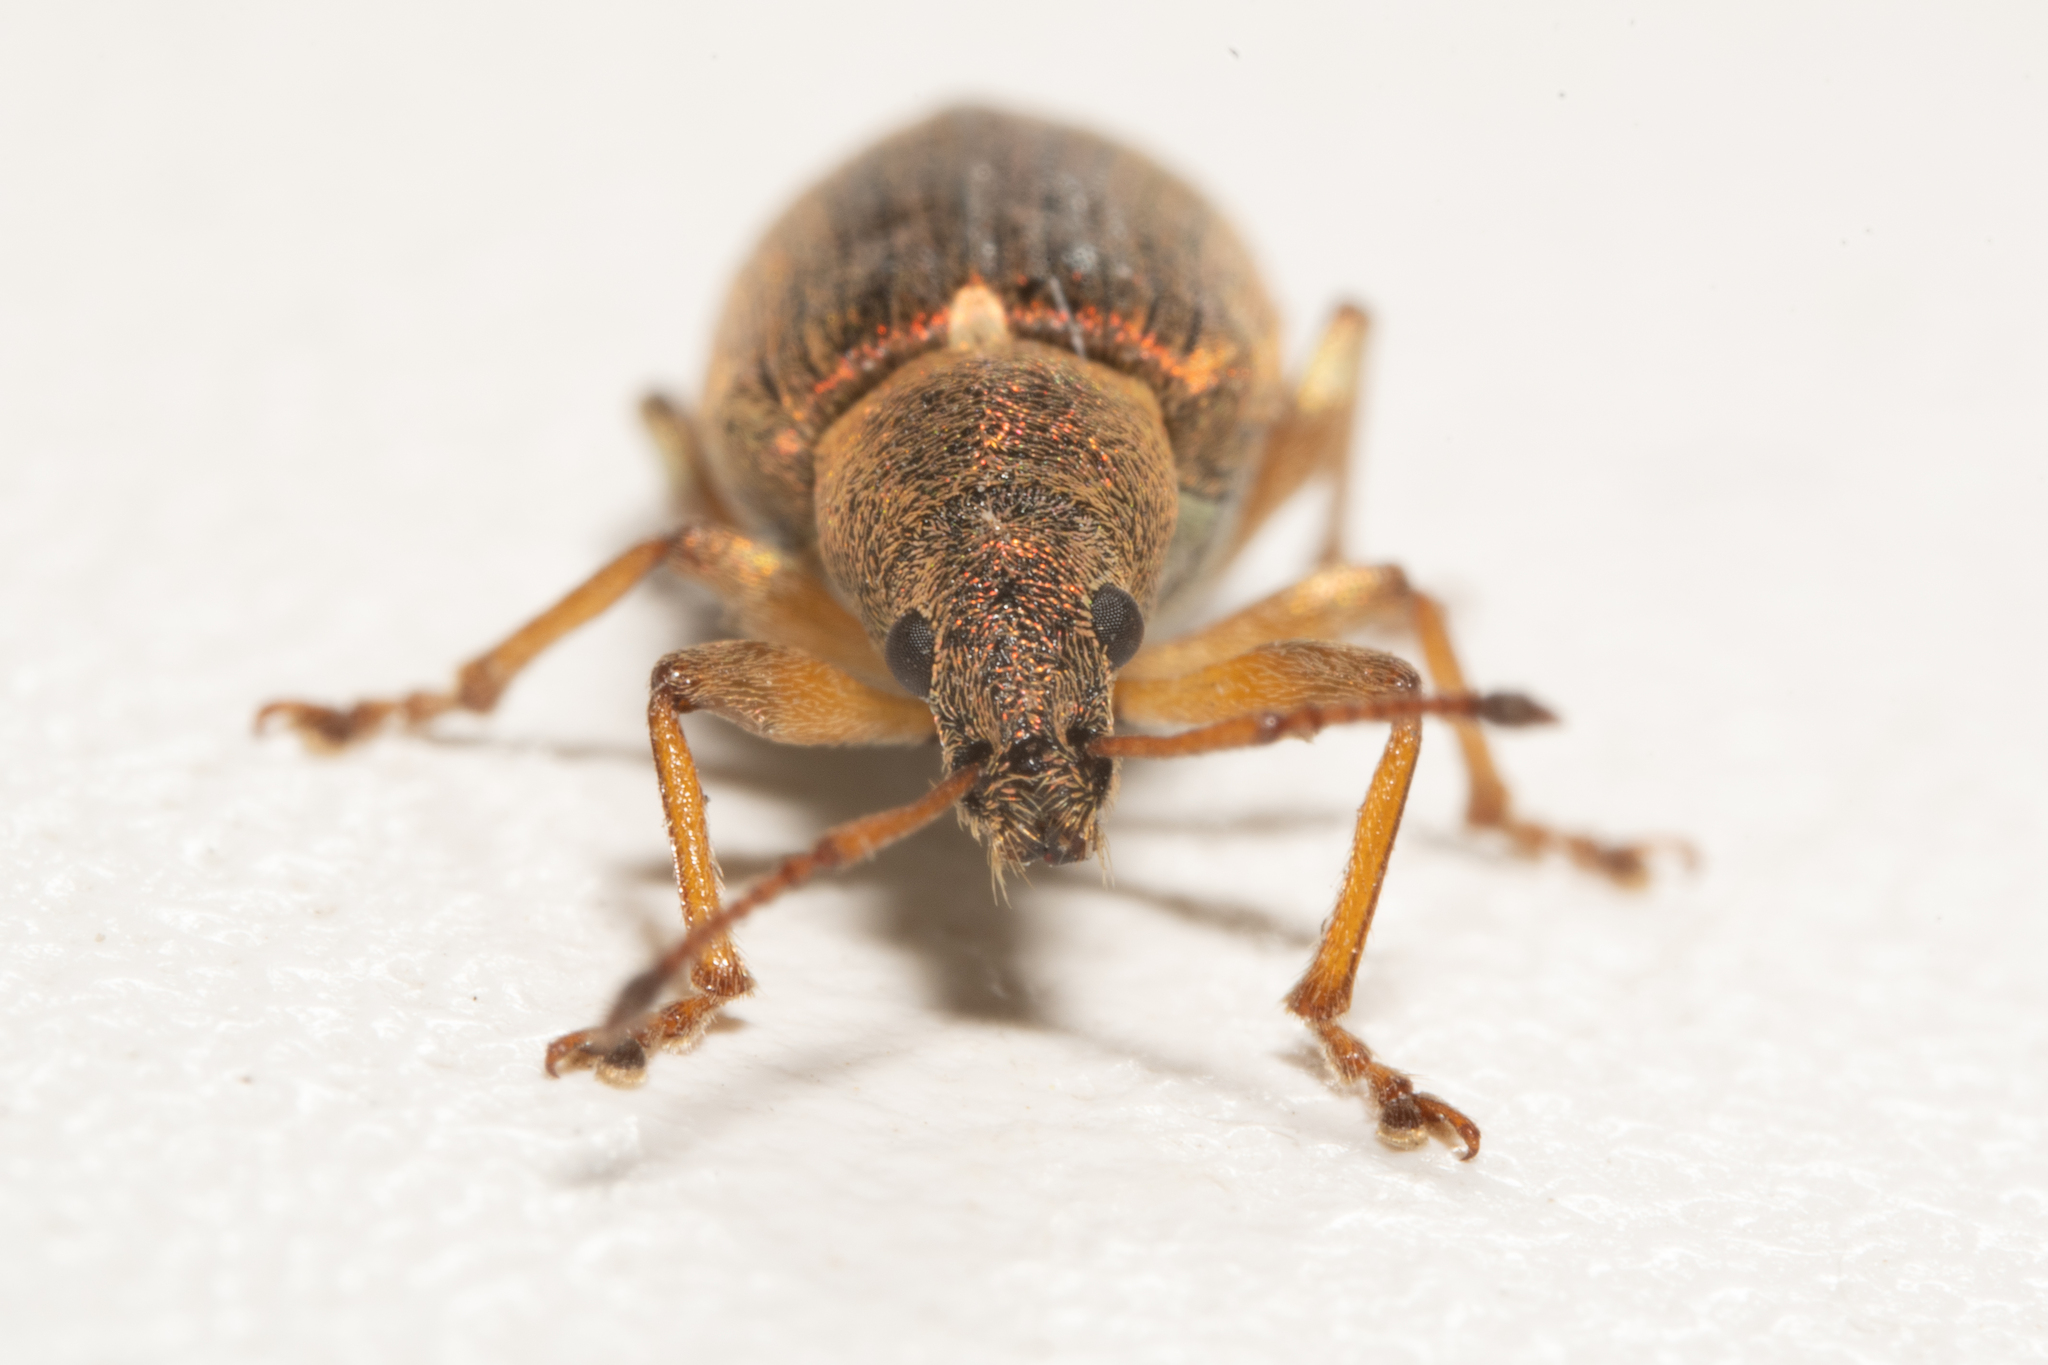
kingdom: Animalia
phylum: Arthropoda
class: Insecta
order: Coleoptera
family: Curculionidae
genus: Phyllobius
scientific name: Phyllobius pyri
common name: Common leaf weevil
